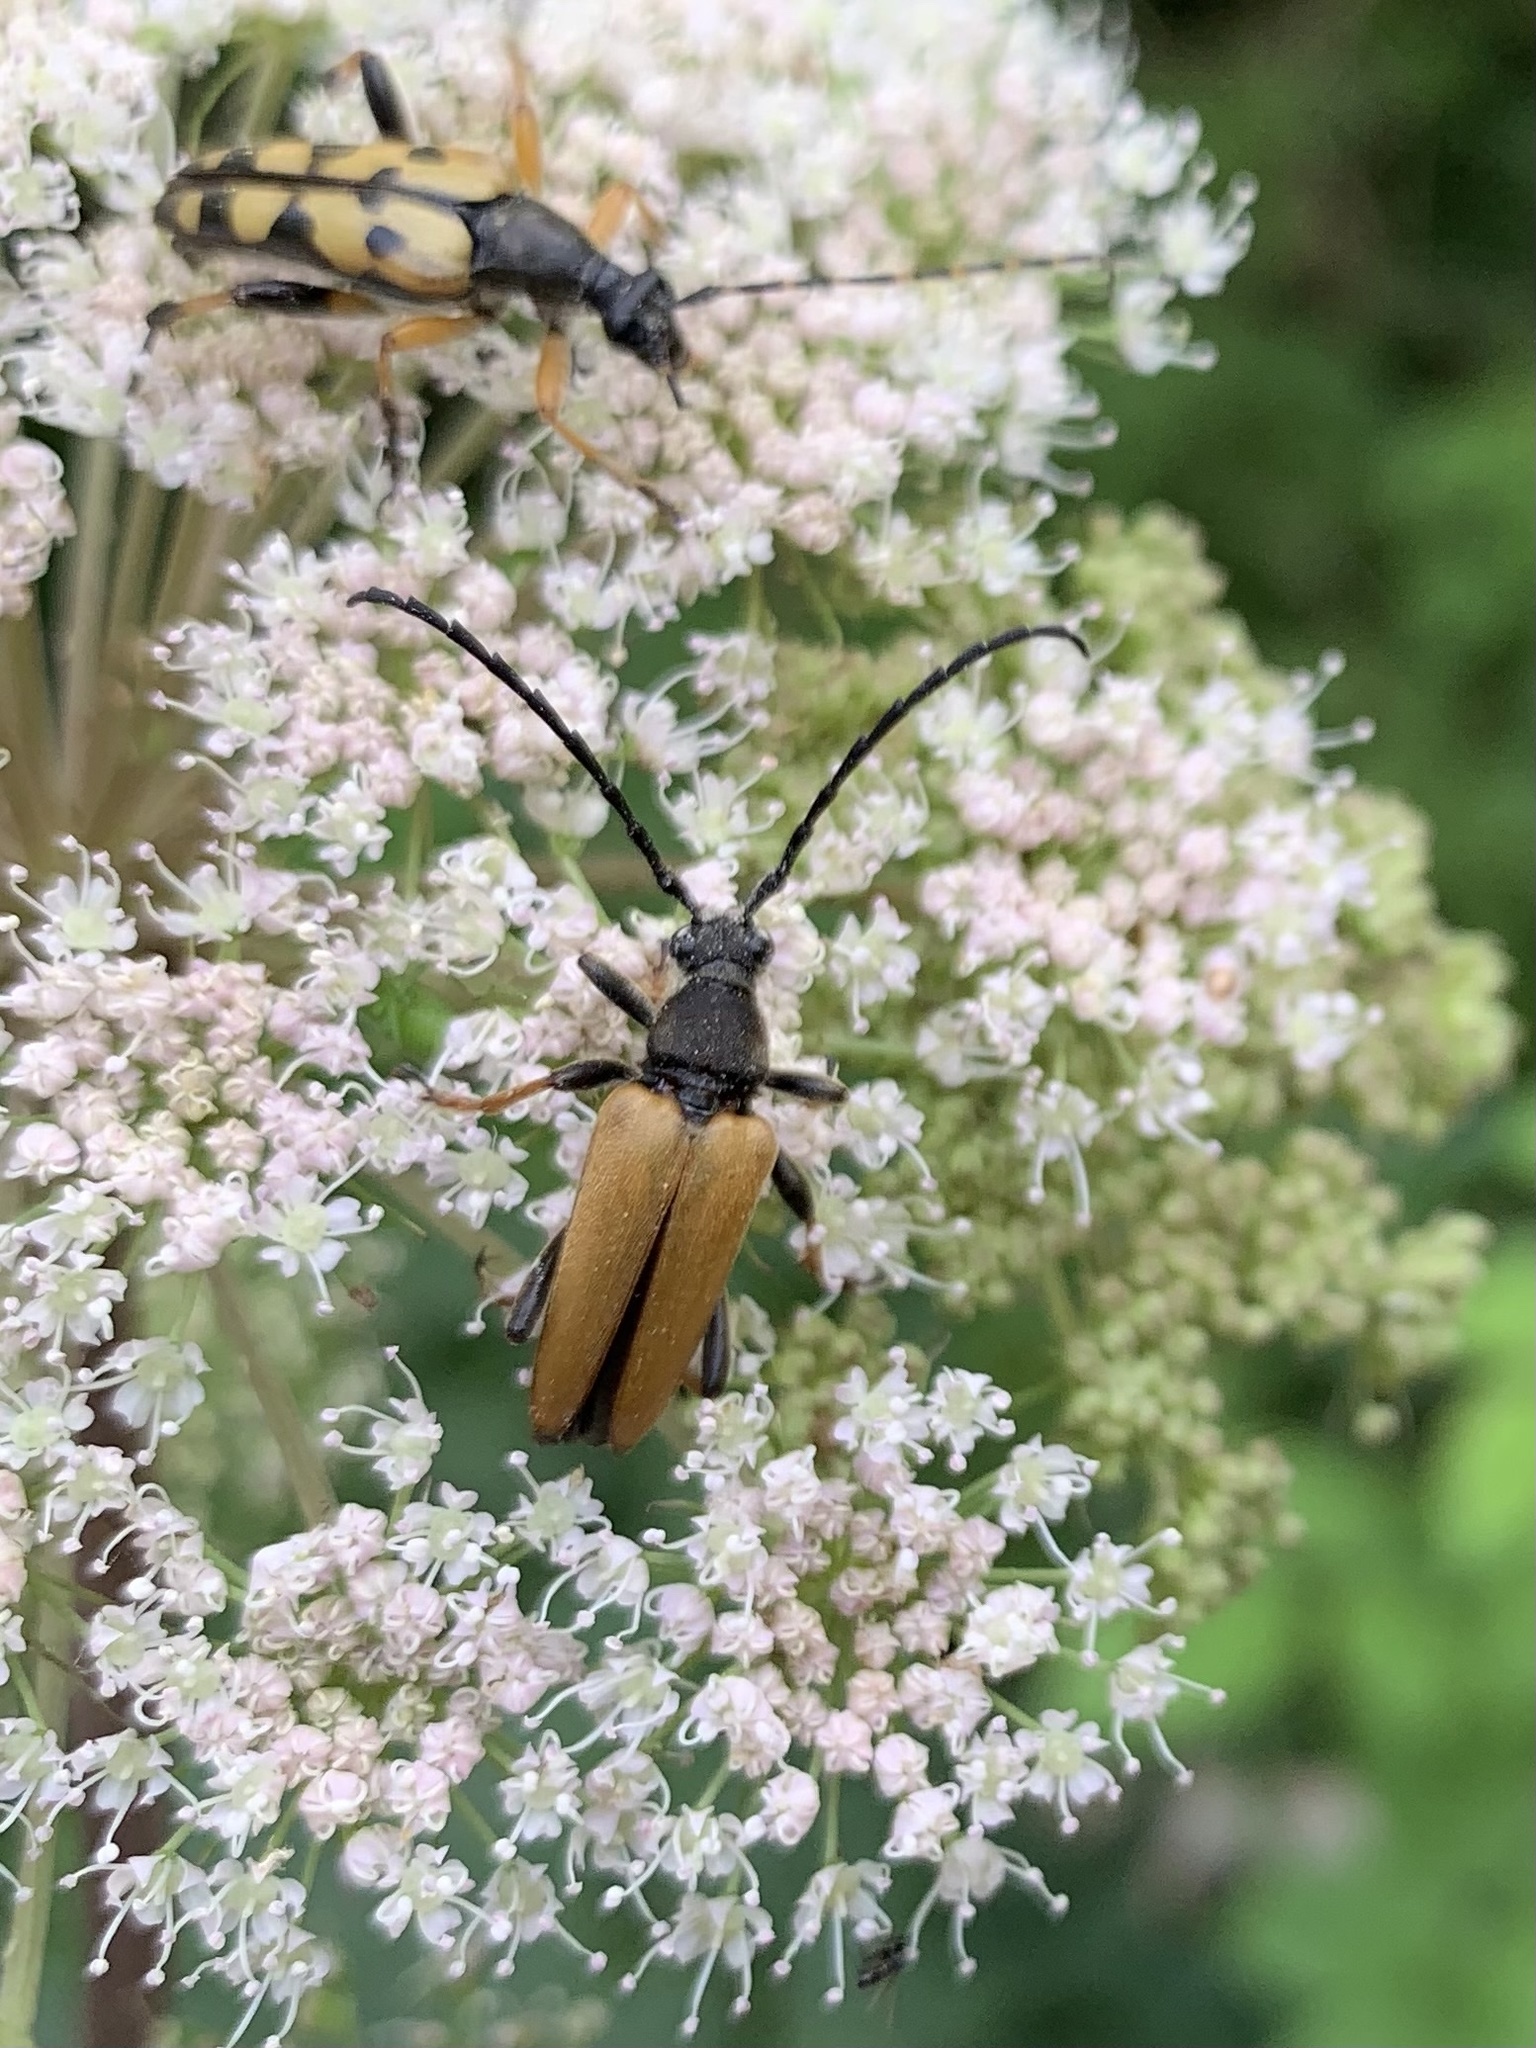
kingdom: Animalia
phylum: Arthropoda
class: Insecta
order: Coleoptera
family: Cerambycidae
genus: Stictoleptura
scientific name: Stictoleptura rubra
